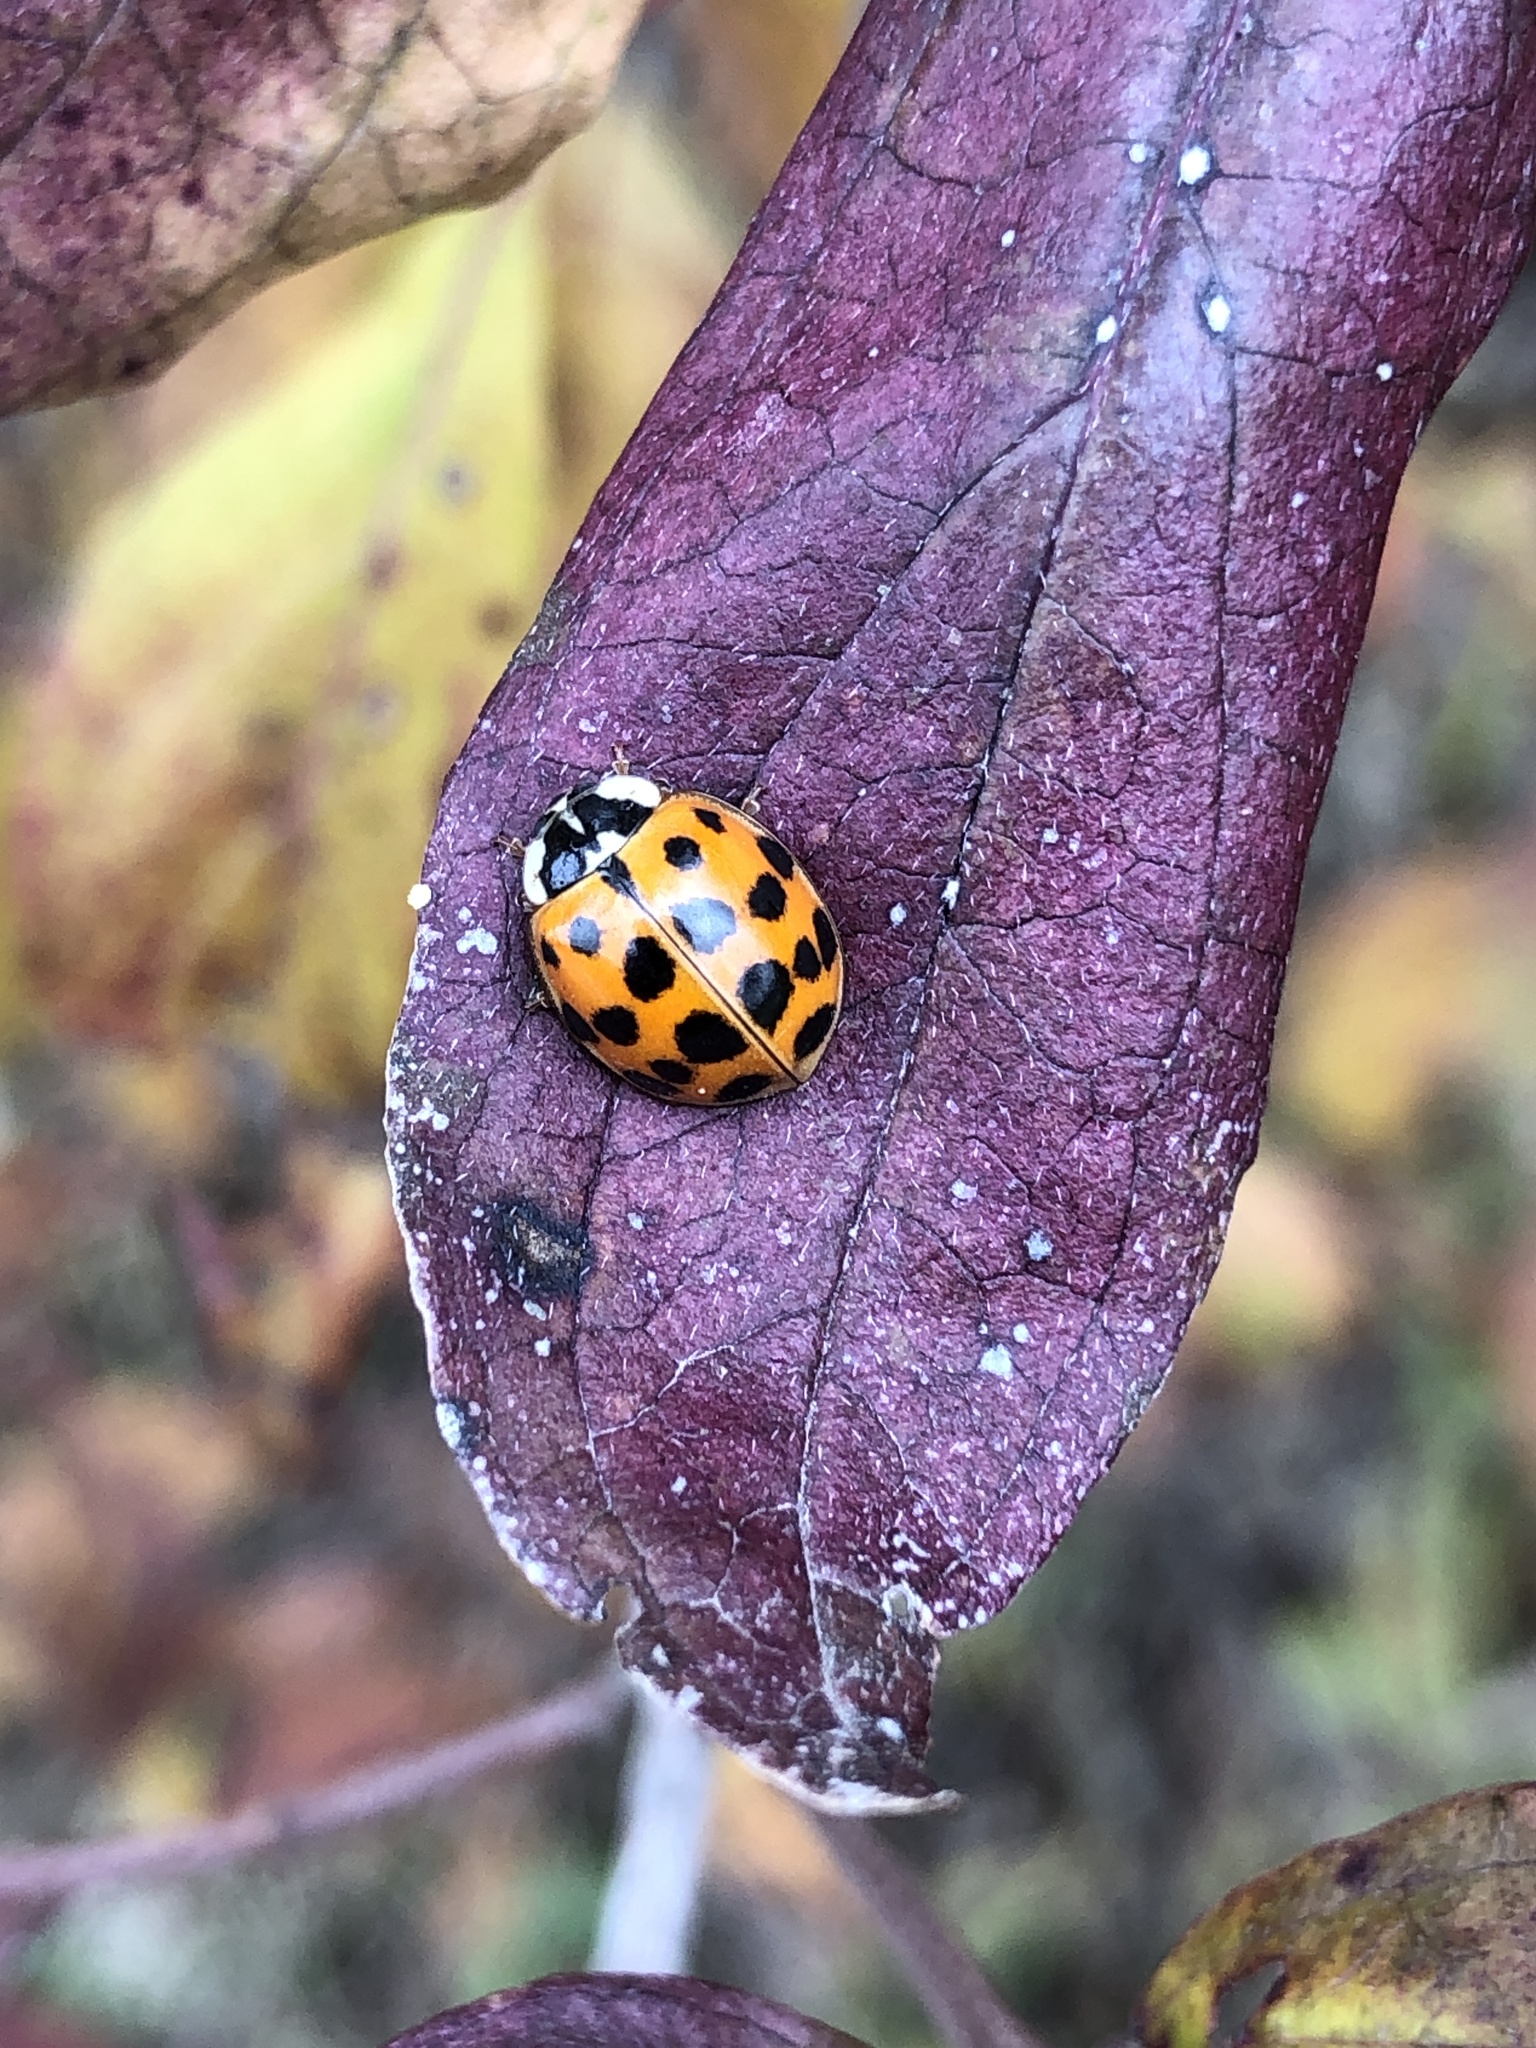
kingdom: Animalia
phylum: Arthropoda
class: Insecta
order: Coleoptera
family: Coccinellidae
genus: Harmonia
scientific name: Harmonia axyridis
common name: Harlequin ladybird
